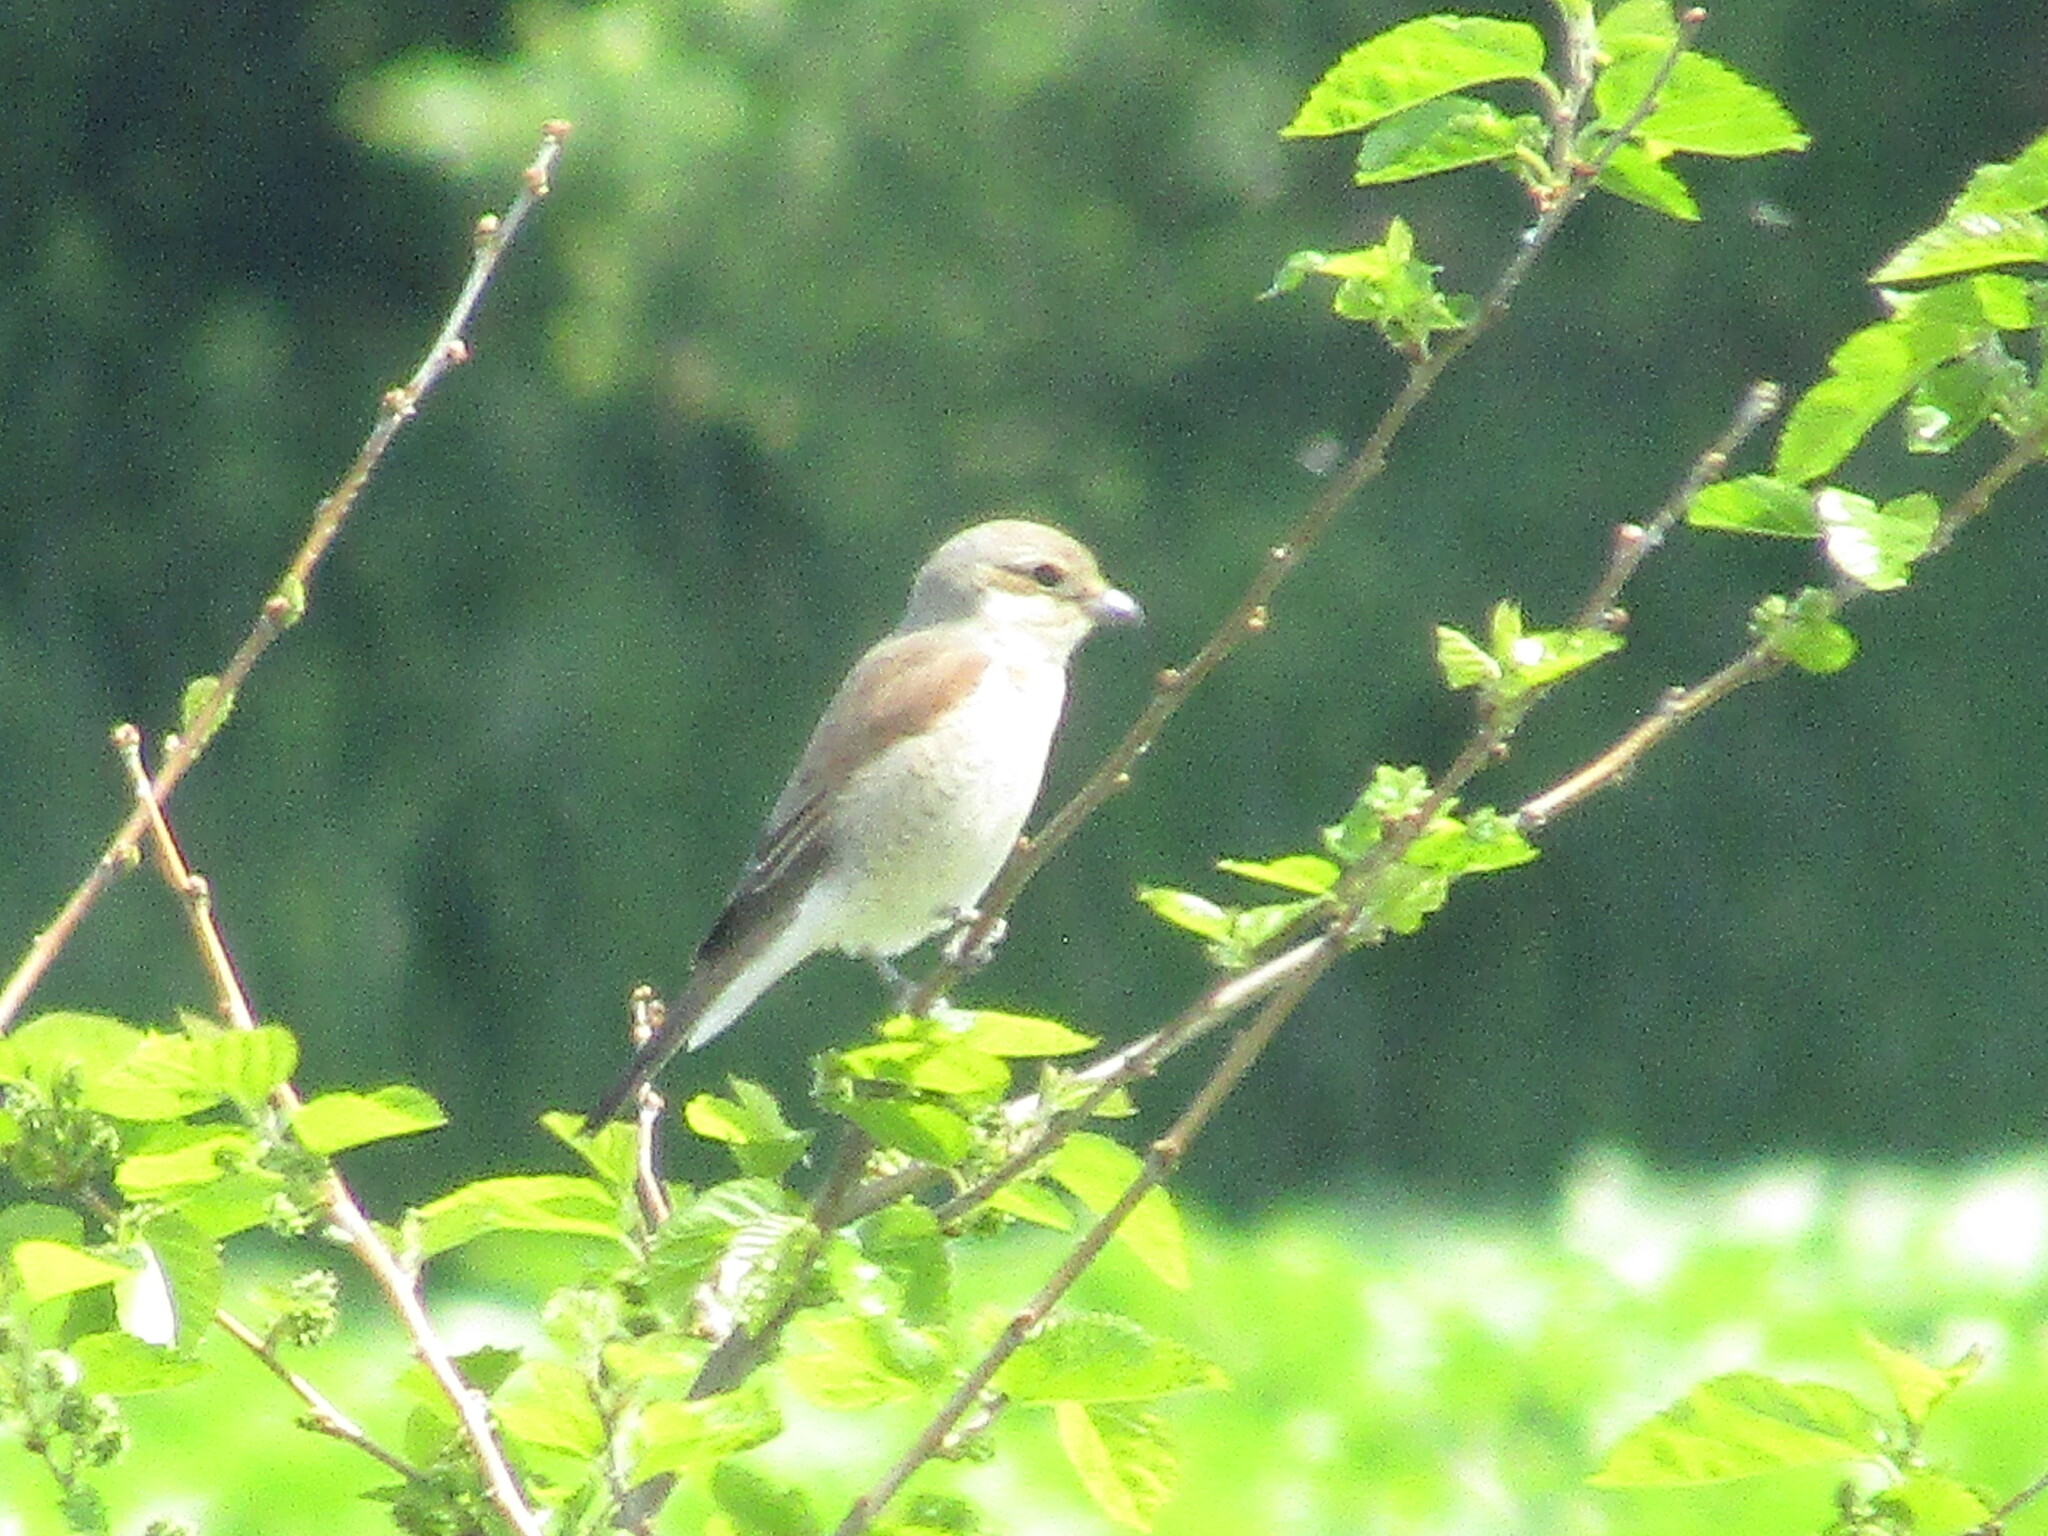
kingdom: Animalia
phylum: Chordata
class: Aves
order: Passeriformes
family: Laniidae
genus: Lanius
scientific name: Lanius collurio
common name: Red-backed shrike
